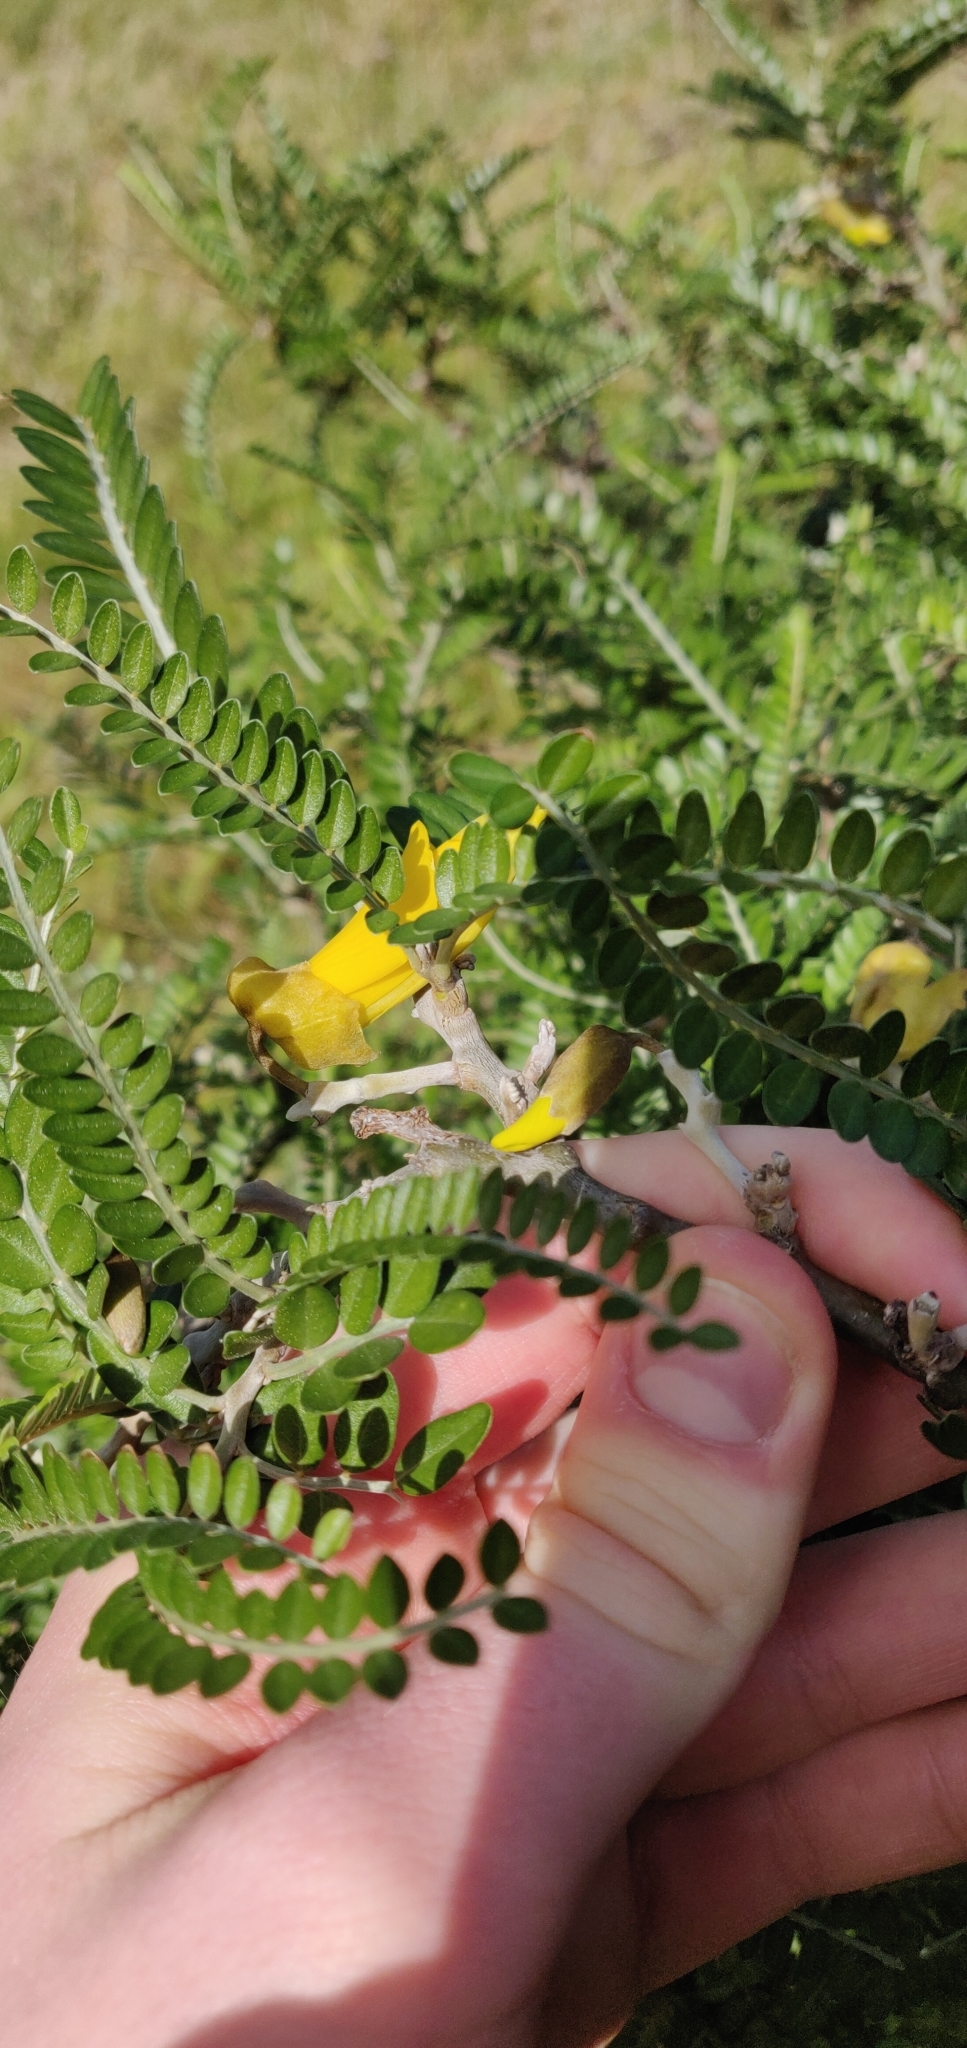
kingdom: Plantae
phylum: Tracheophyta
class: Magnoliopsida
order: Fabales
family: Fabaceae
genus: Sophora
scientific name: Sophora molloyi
